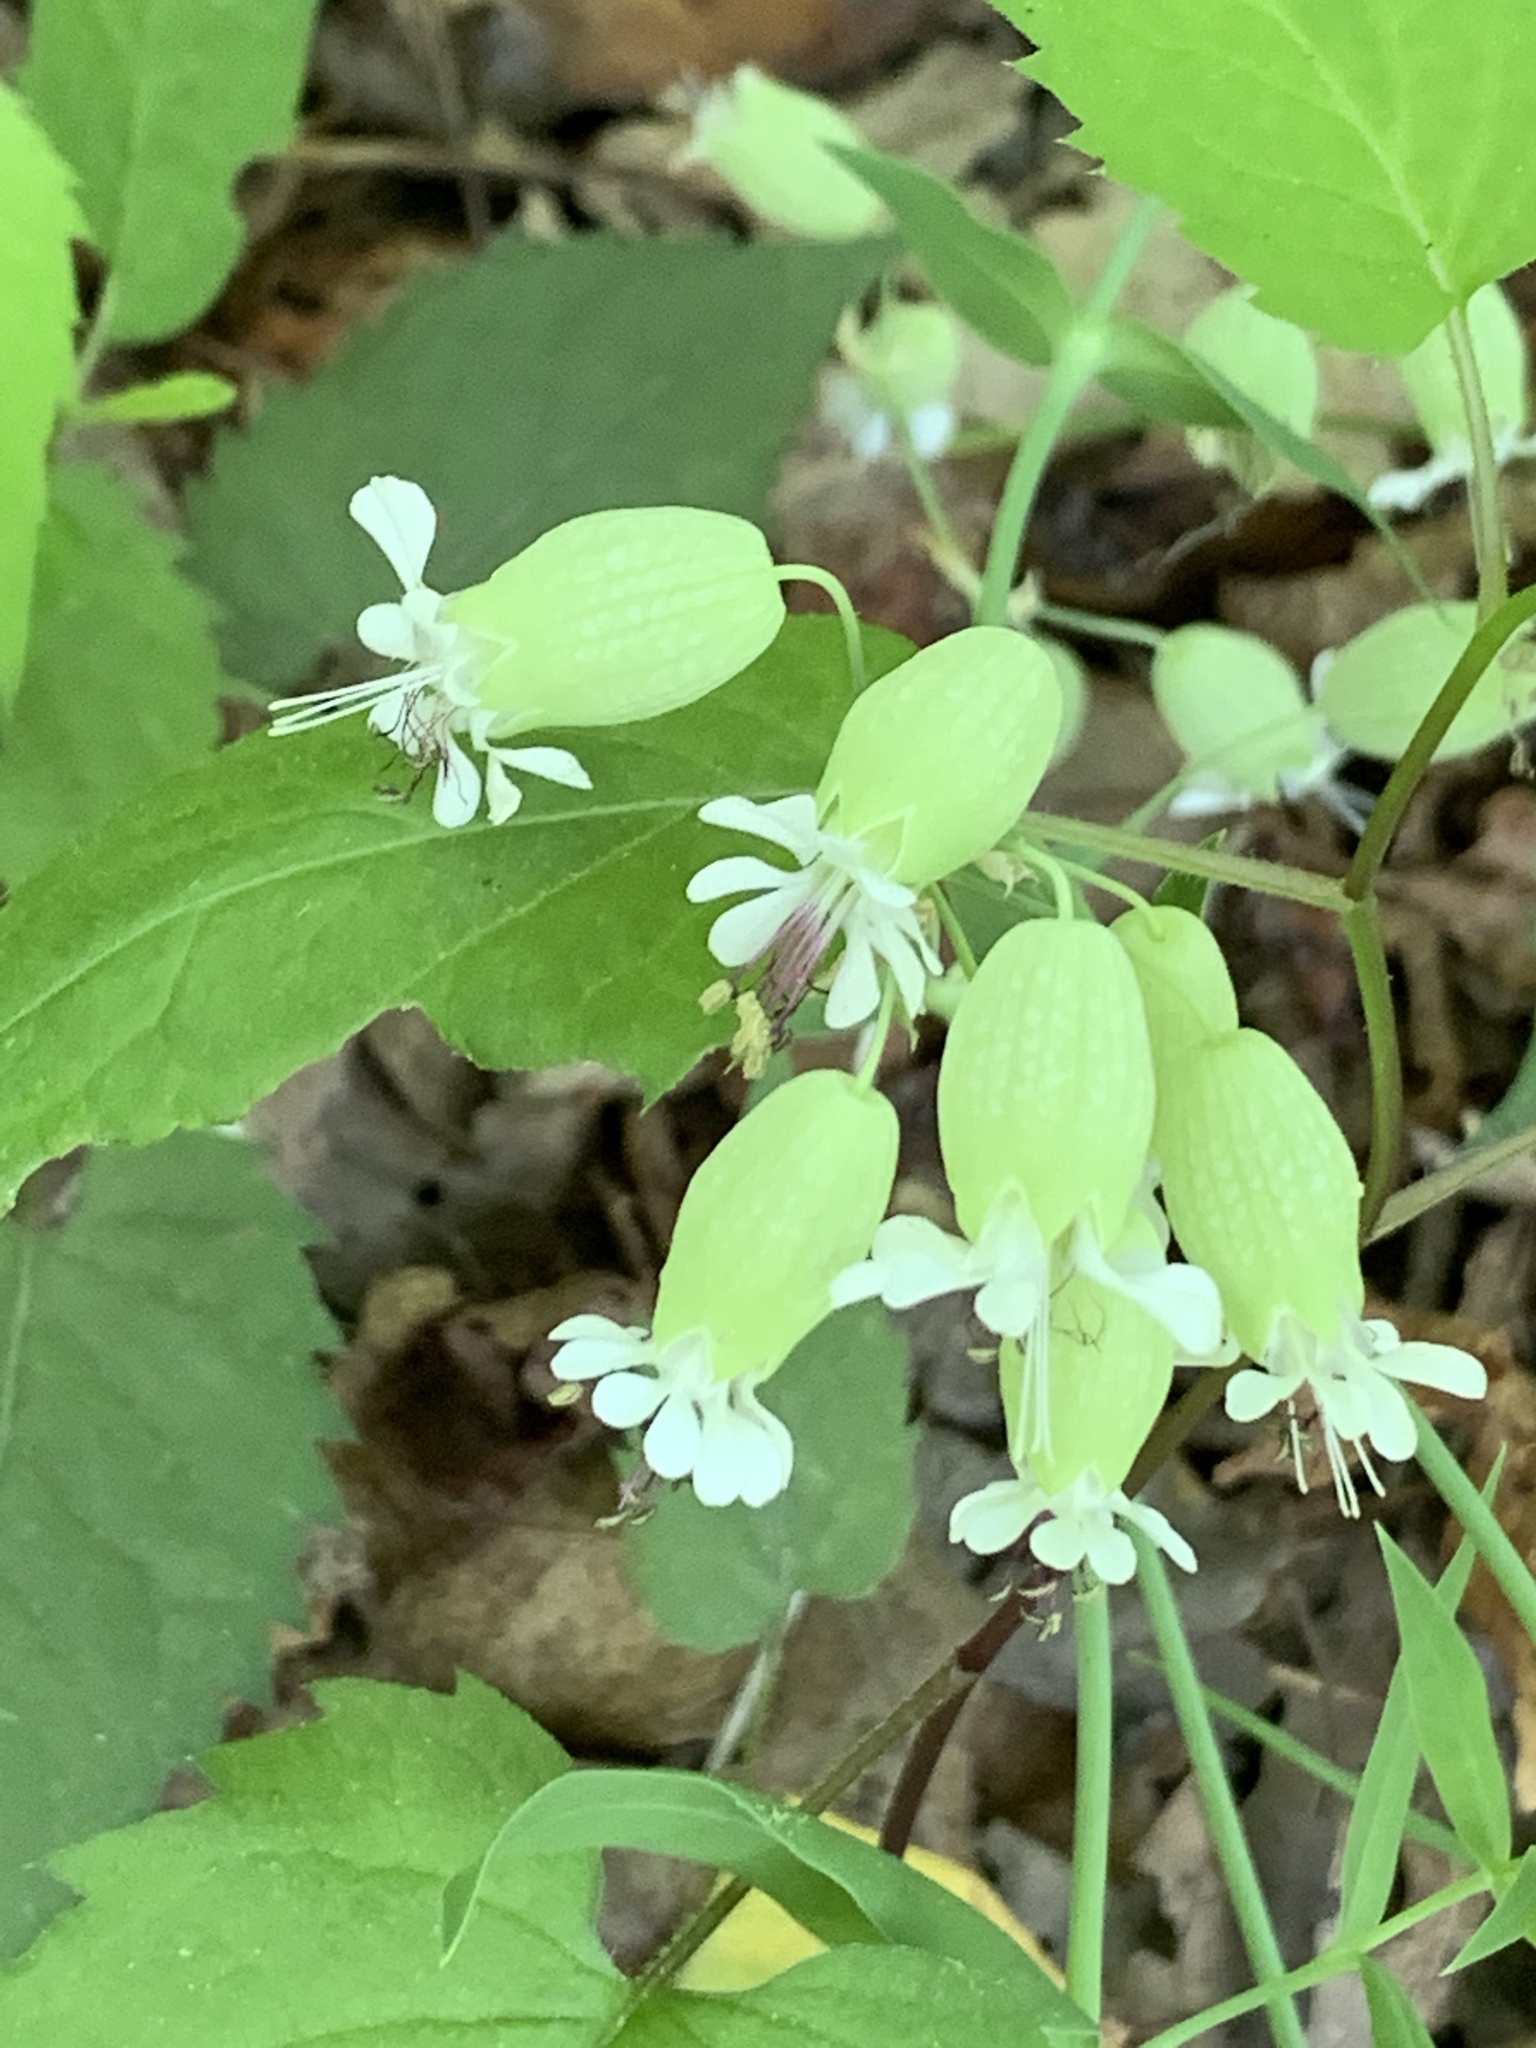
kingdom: Plantae
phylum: Tracheophyta
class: Magnoliopsida
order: Caryophyllales
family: Caryophyllaceae
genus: Silene
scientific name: Silene vulgaris
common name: Bladder campion
